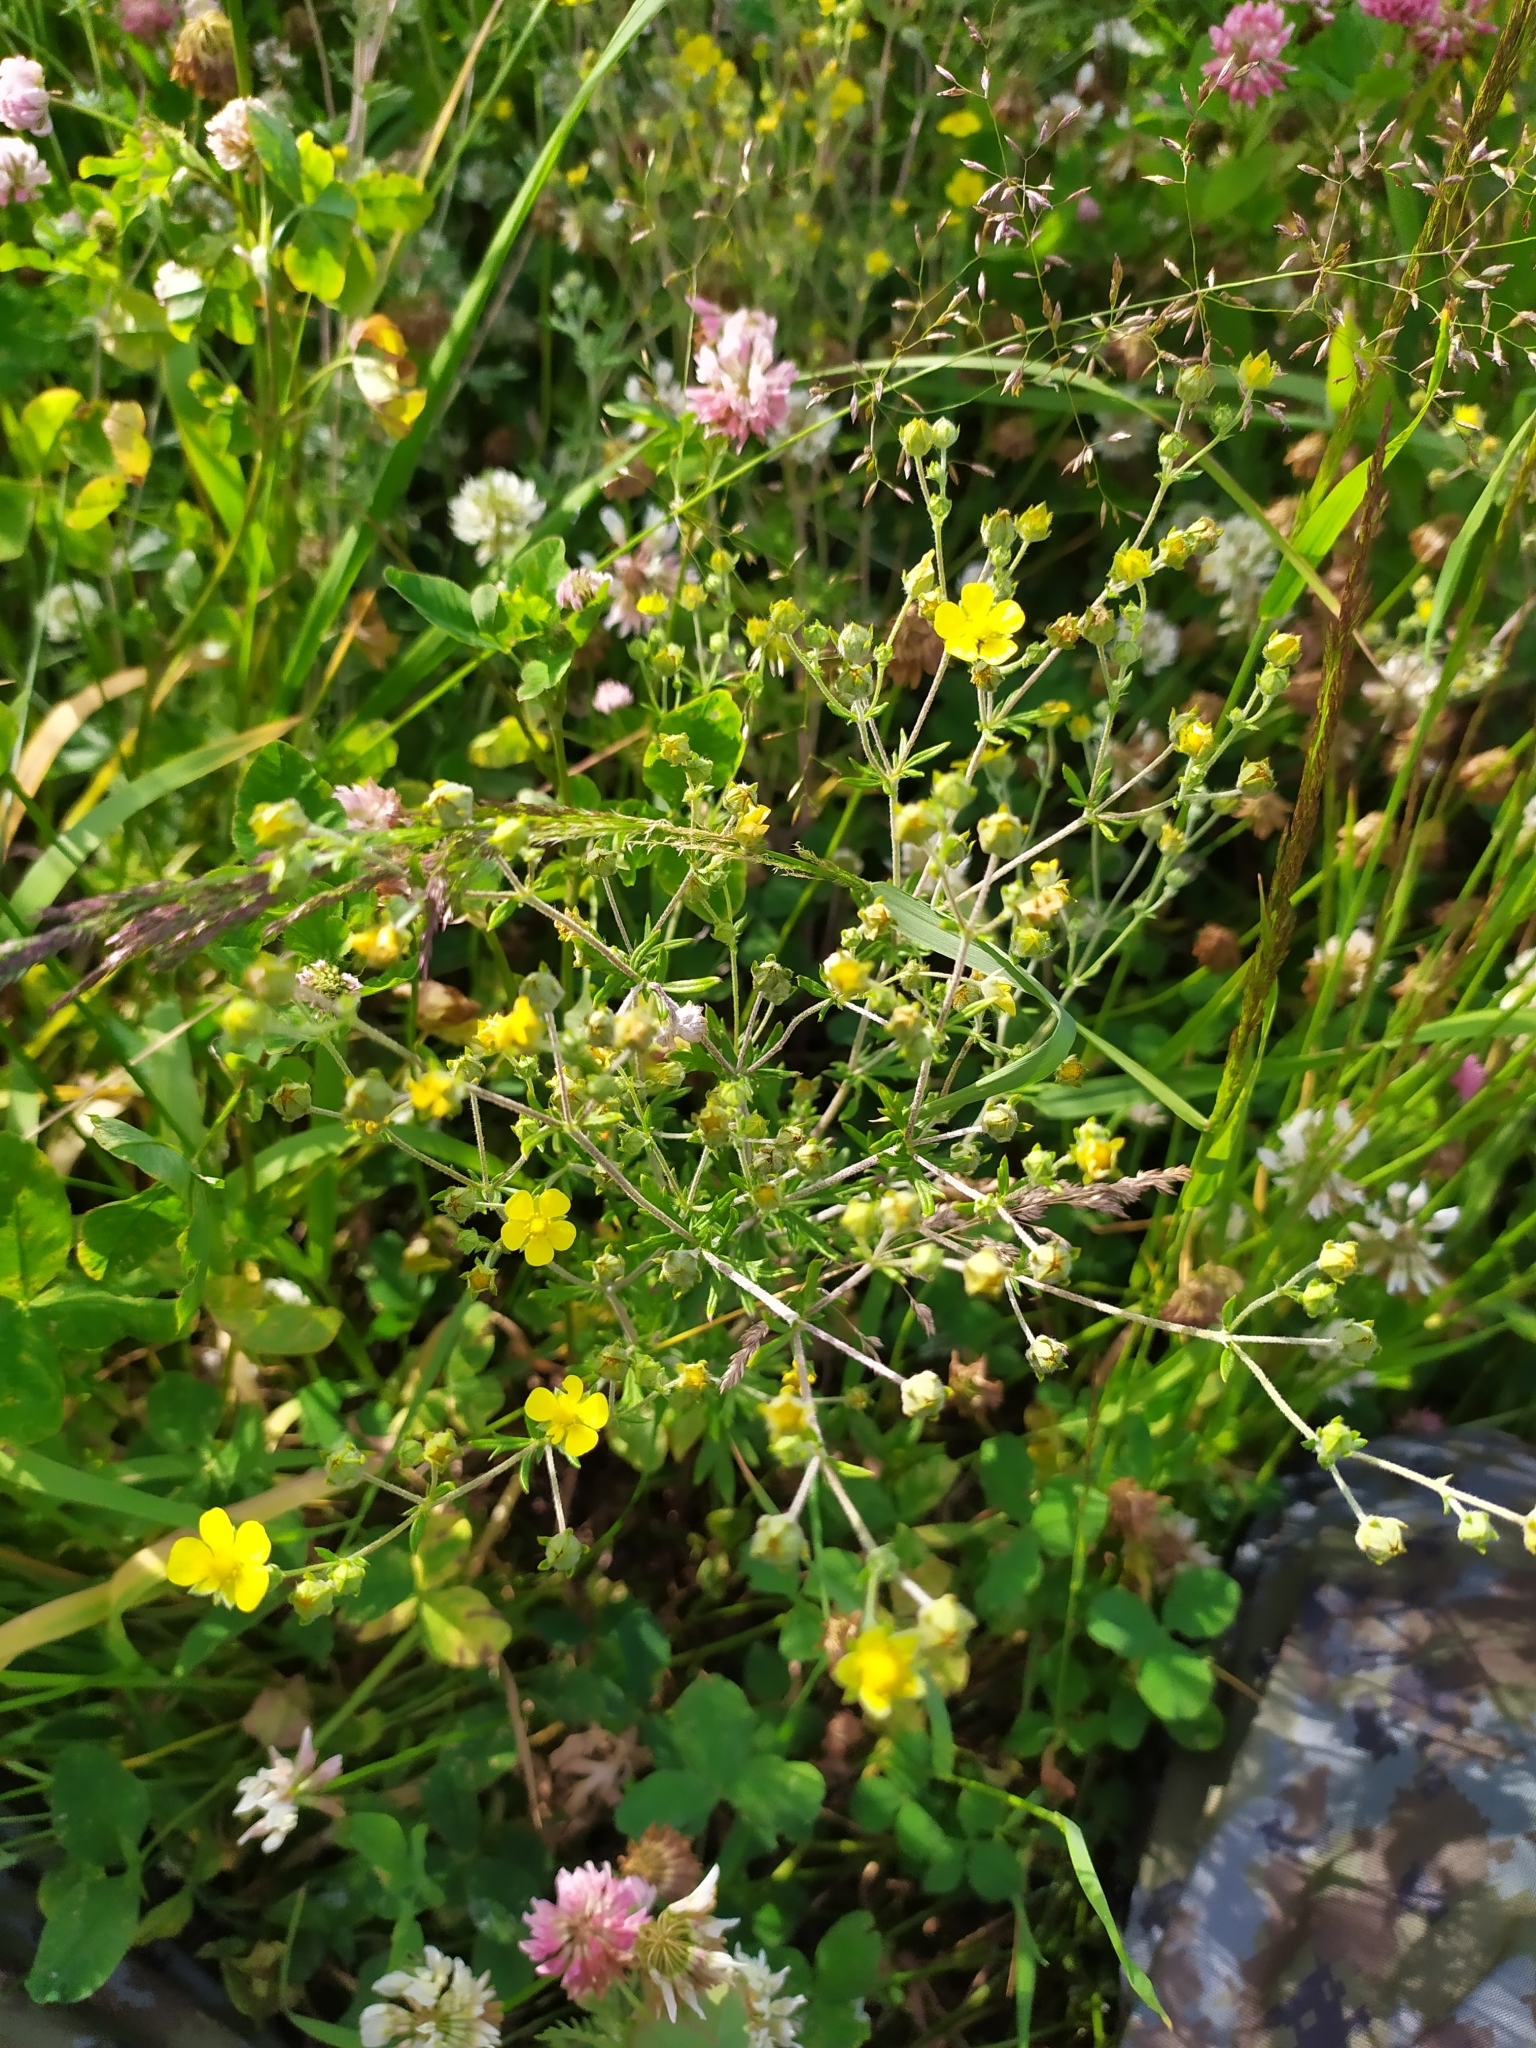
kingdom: Plantae
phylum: Tracheophyta
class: Magnoliopsida
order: Rosales
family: Rosaceae
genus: Potentilla
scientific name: Potentilla argentea
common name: Hoary cinquefoil
